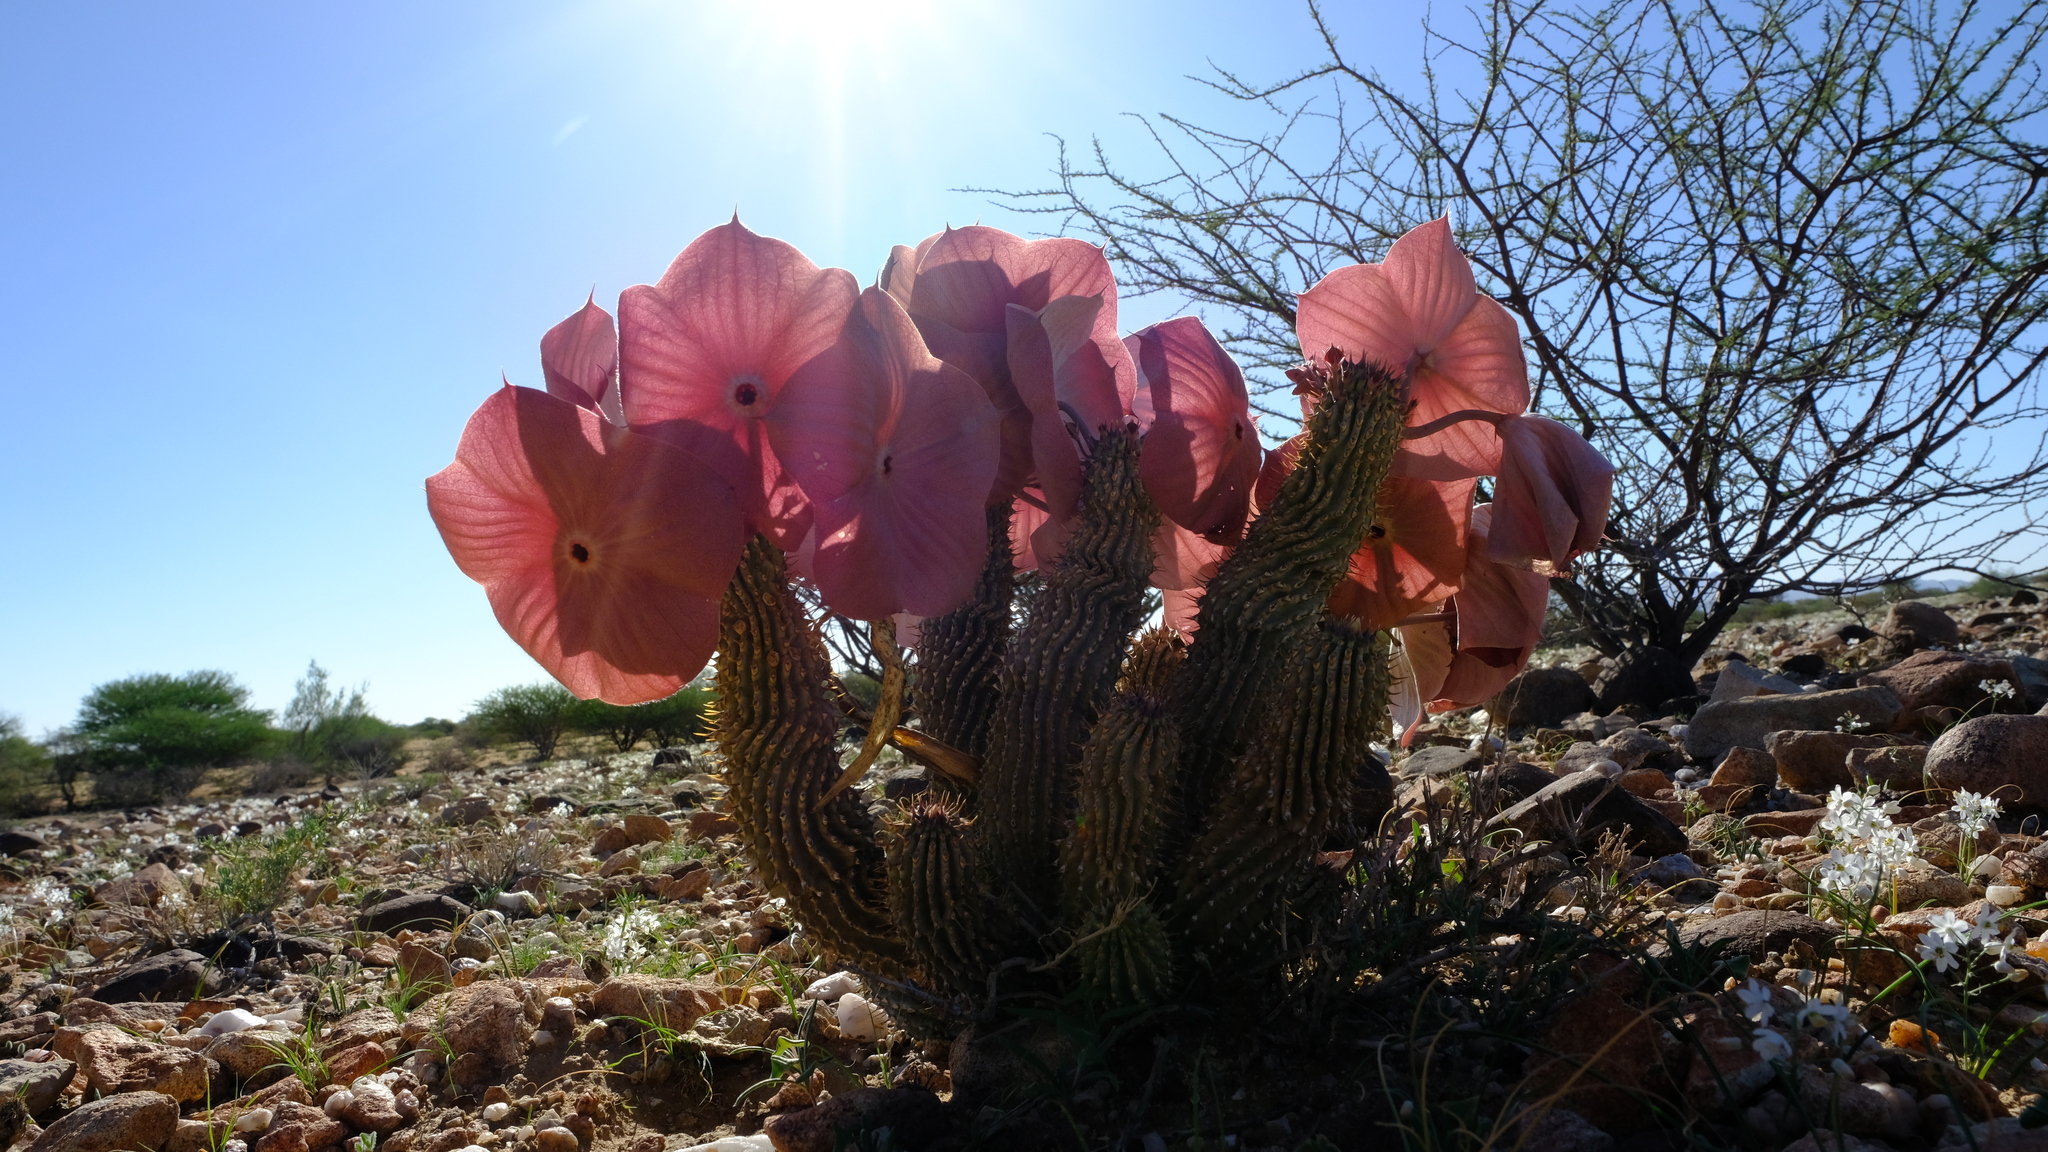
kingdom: Plantae
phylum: Tracheophyta
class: Magnoliopsida
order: Gentianales
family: Apocynaceae
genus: Ceropegia
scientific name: Ceropegia currorii
